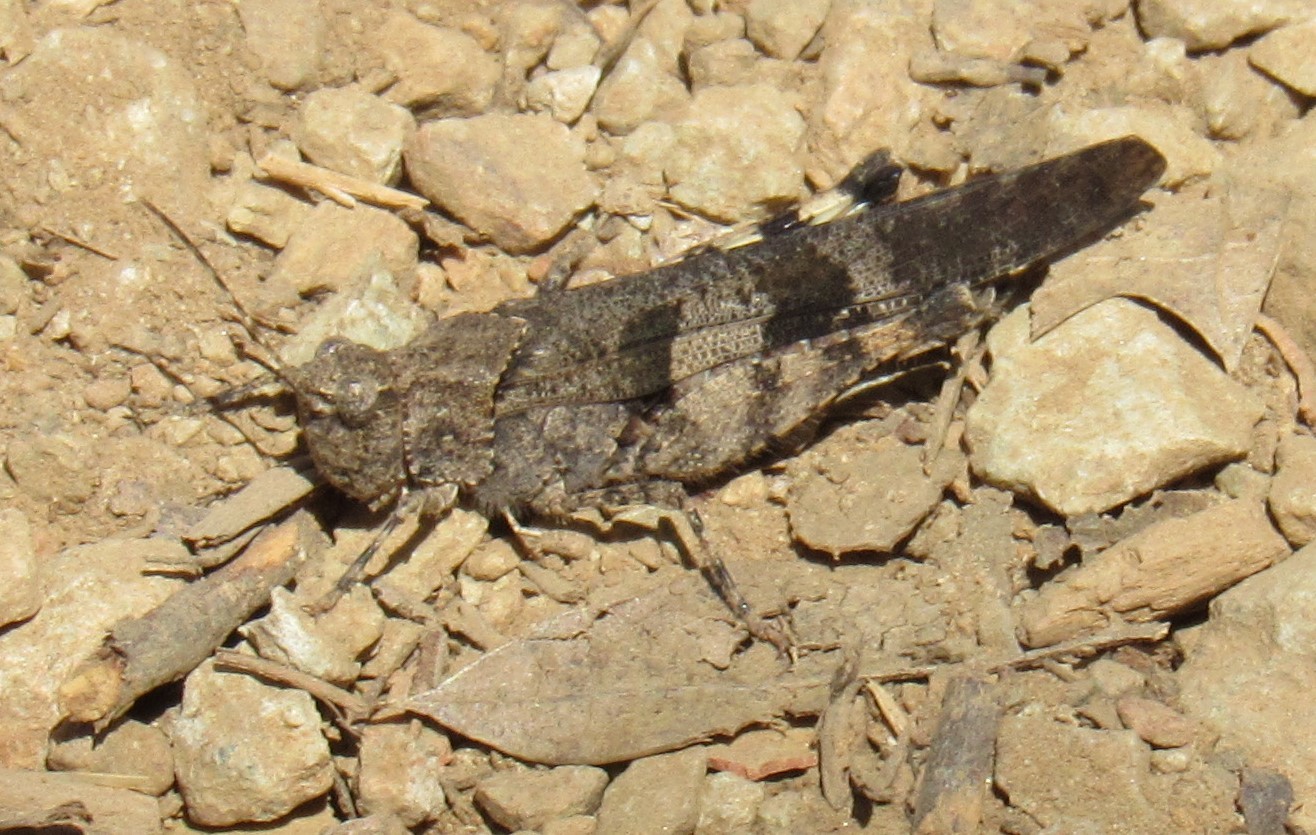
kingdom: Animalia
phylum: Arthropoda
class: Insecta
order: Orthoptera
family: Acrididae
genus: Trimerotropis
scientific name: Trimerotropis fontana
